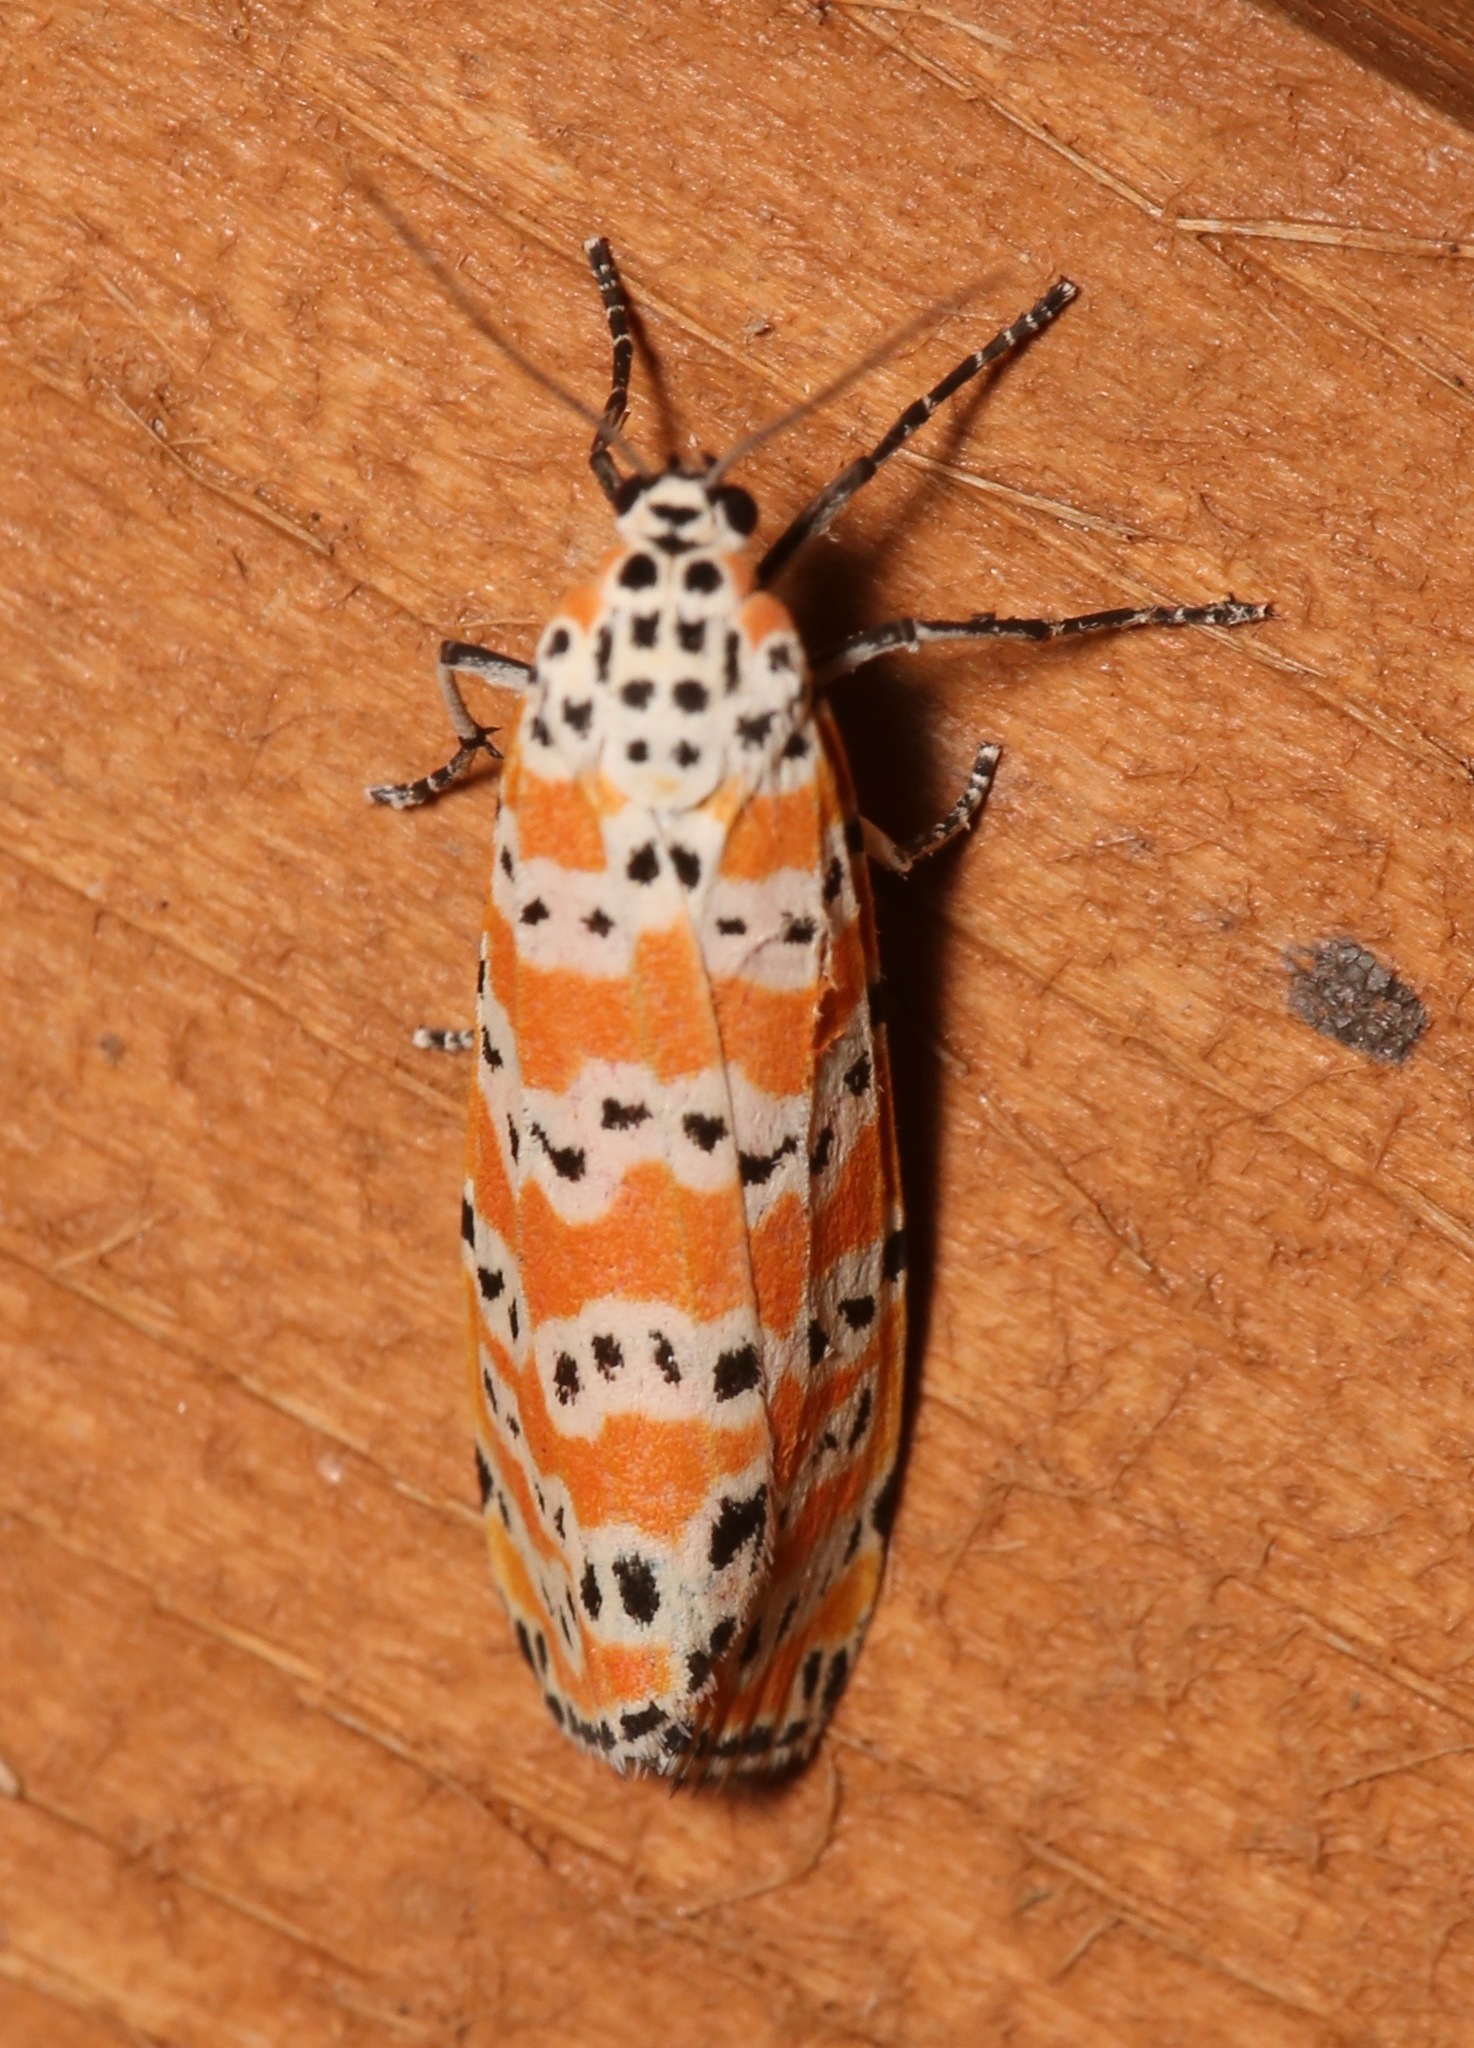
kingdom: Animalia
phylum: Arthropoda
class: Insecta
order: Lepidoptera
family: Erebidae
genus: Utetheisa
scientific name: Utetheisa ornatrix
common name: Beautiful utetheisa
